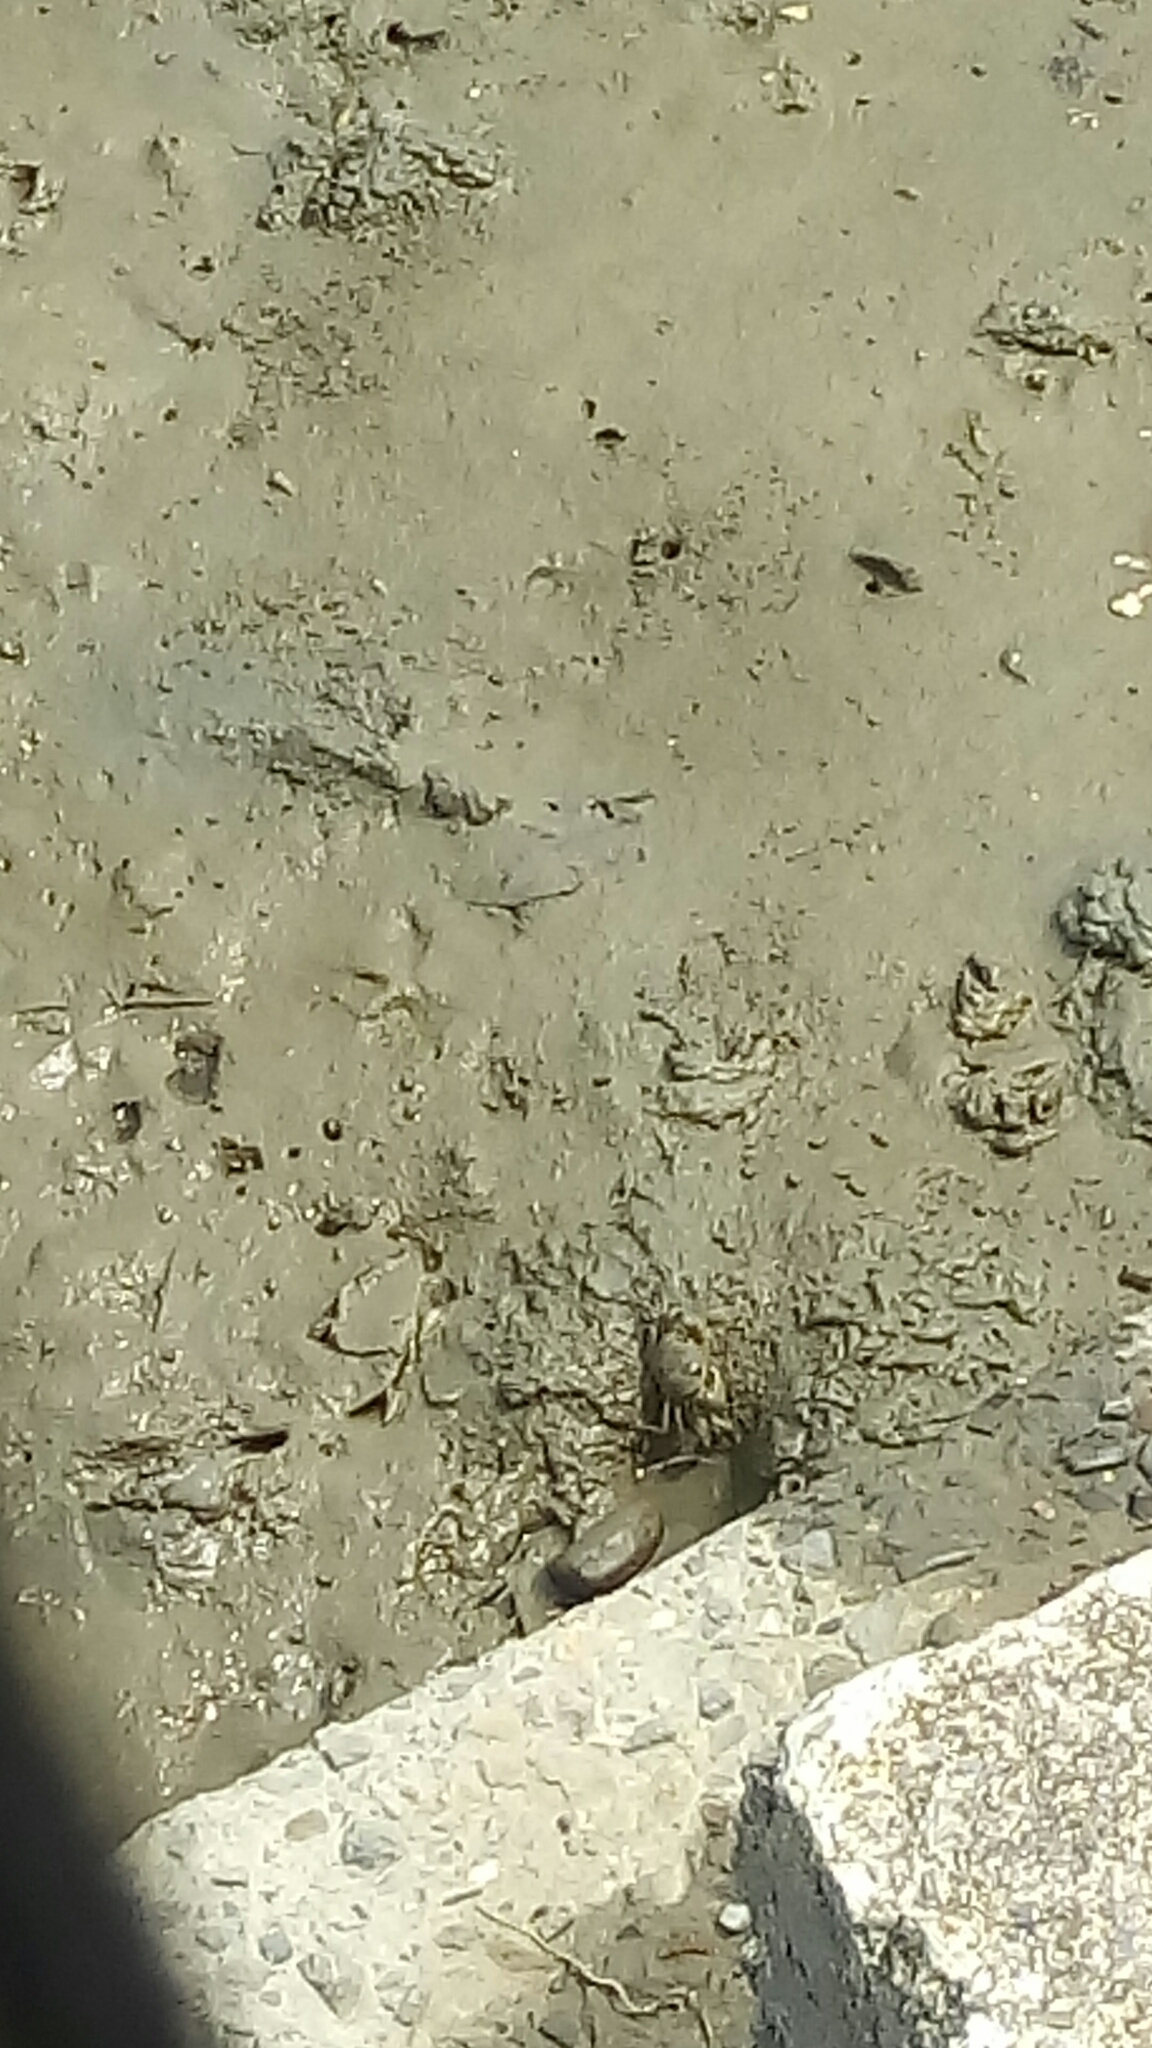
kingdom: Animalia
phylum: Arthropoda
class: Malacostraca
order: Decapoda
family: Varunidae
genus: Helice
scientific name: Helice formosensis
